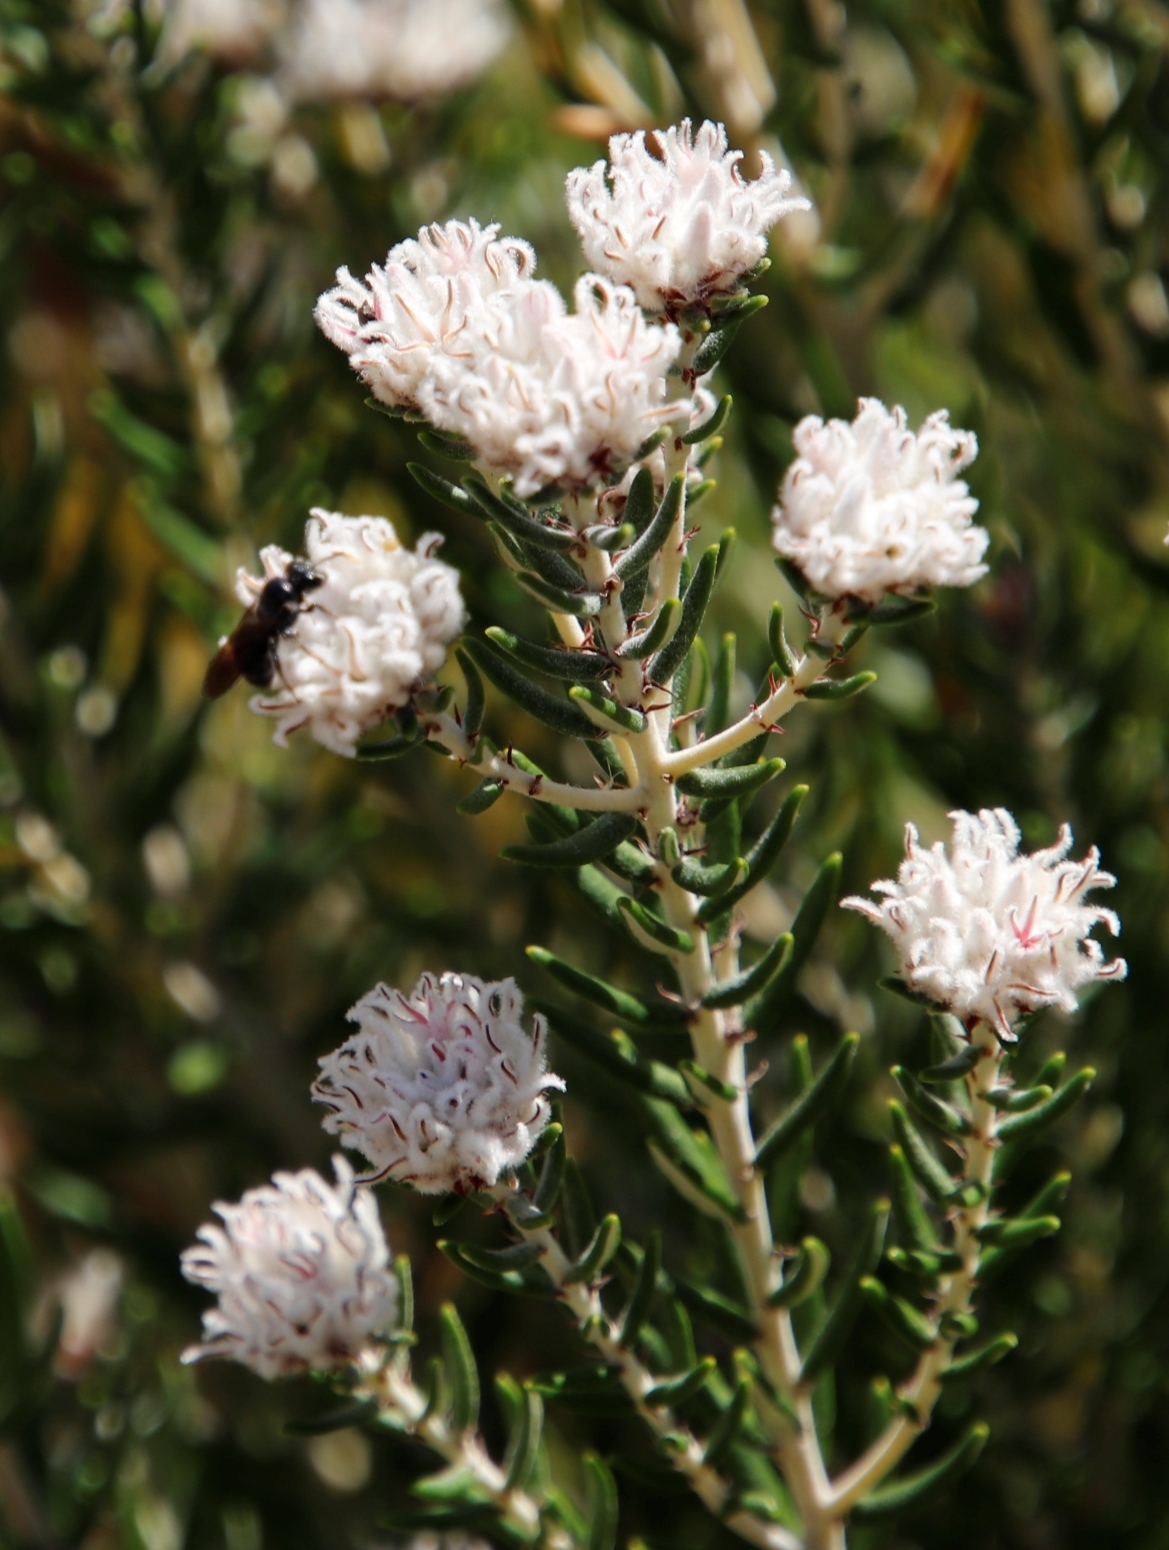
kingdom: Plantae
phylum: Tracheophyta
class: Magnoliopsida
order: Rosales
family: Rhamnaceae
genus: Trichocephalus
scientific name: Trichocephalus stipularis
